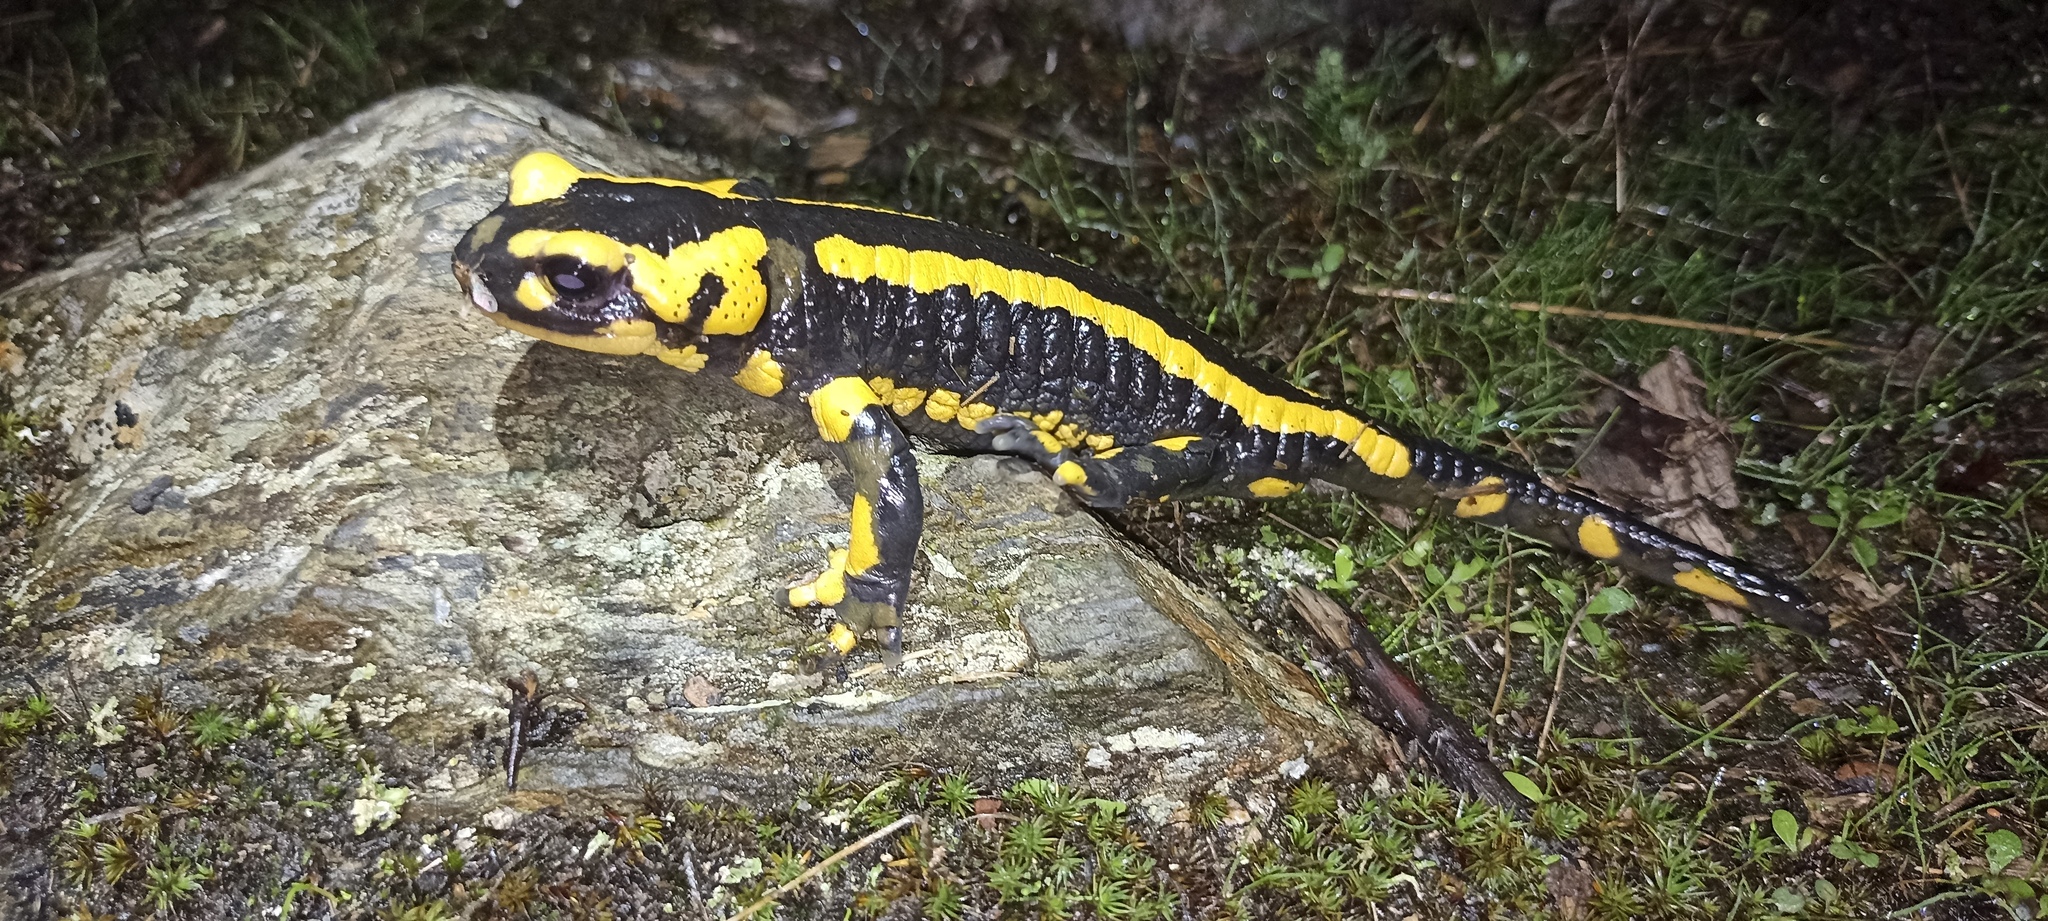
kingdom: Animalia
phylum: Chordata
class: Amphibia
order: Caudata
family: Salamandridae
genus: Salamandra
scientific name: Salamandra salamandra
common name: Fire salamander
